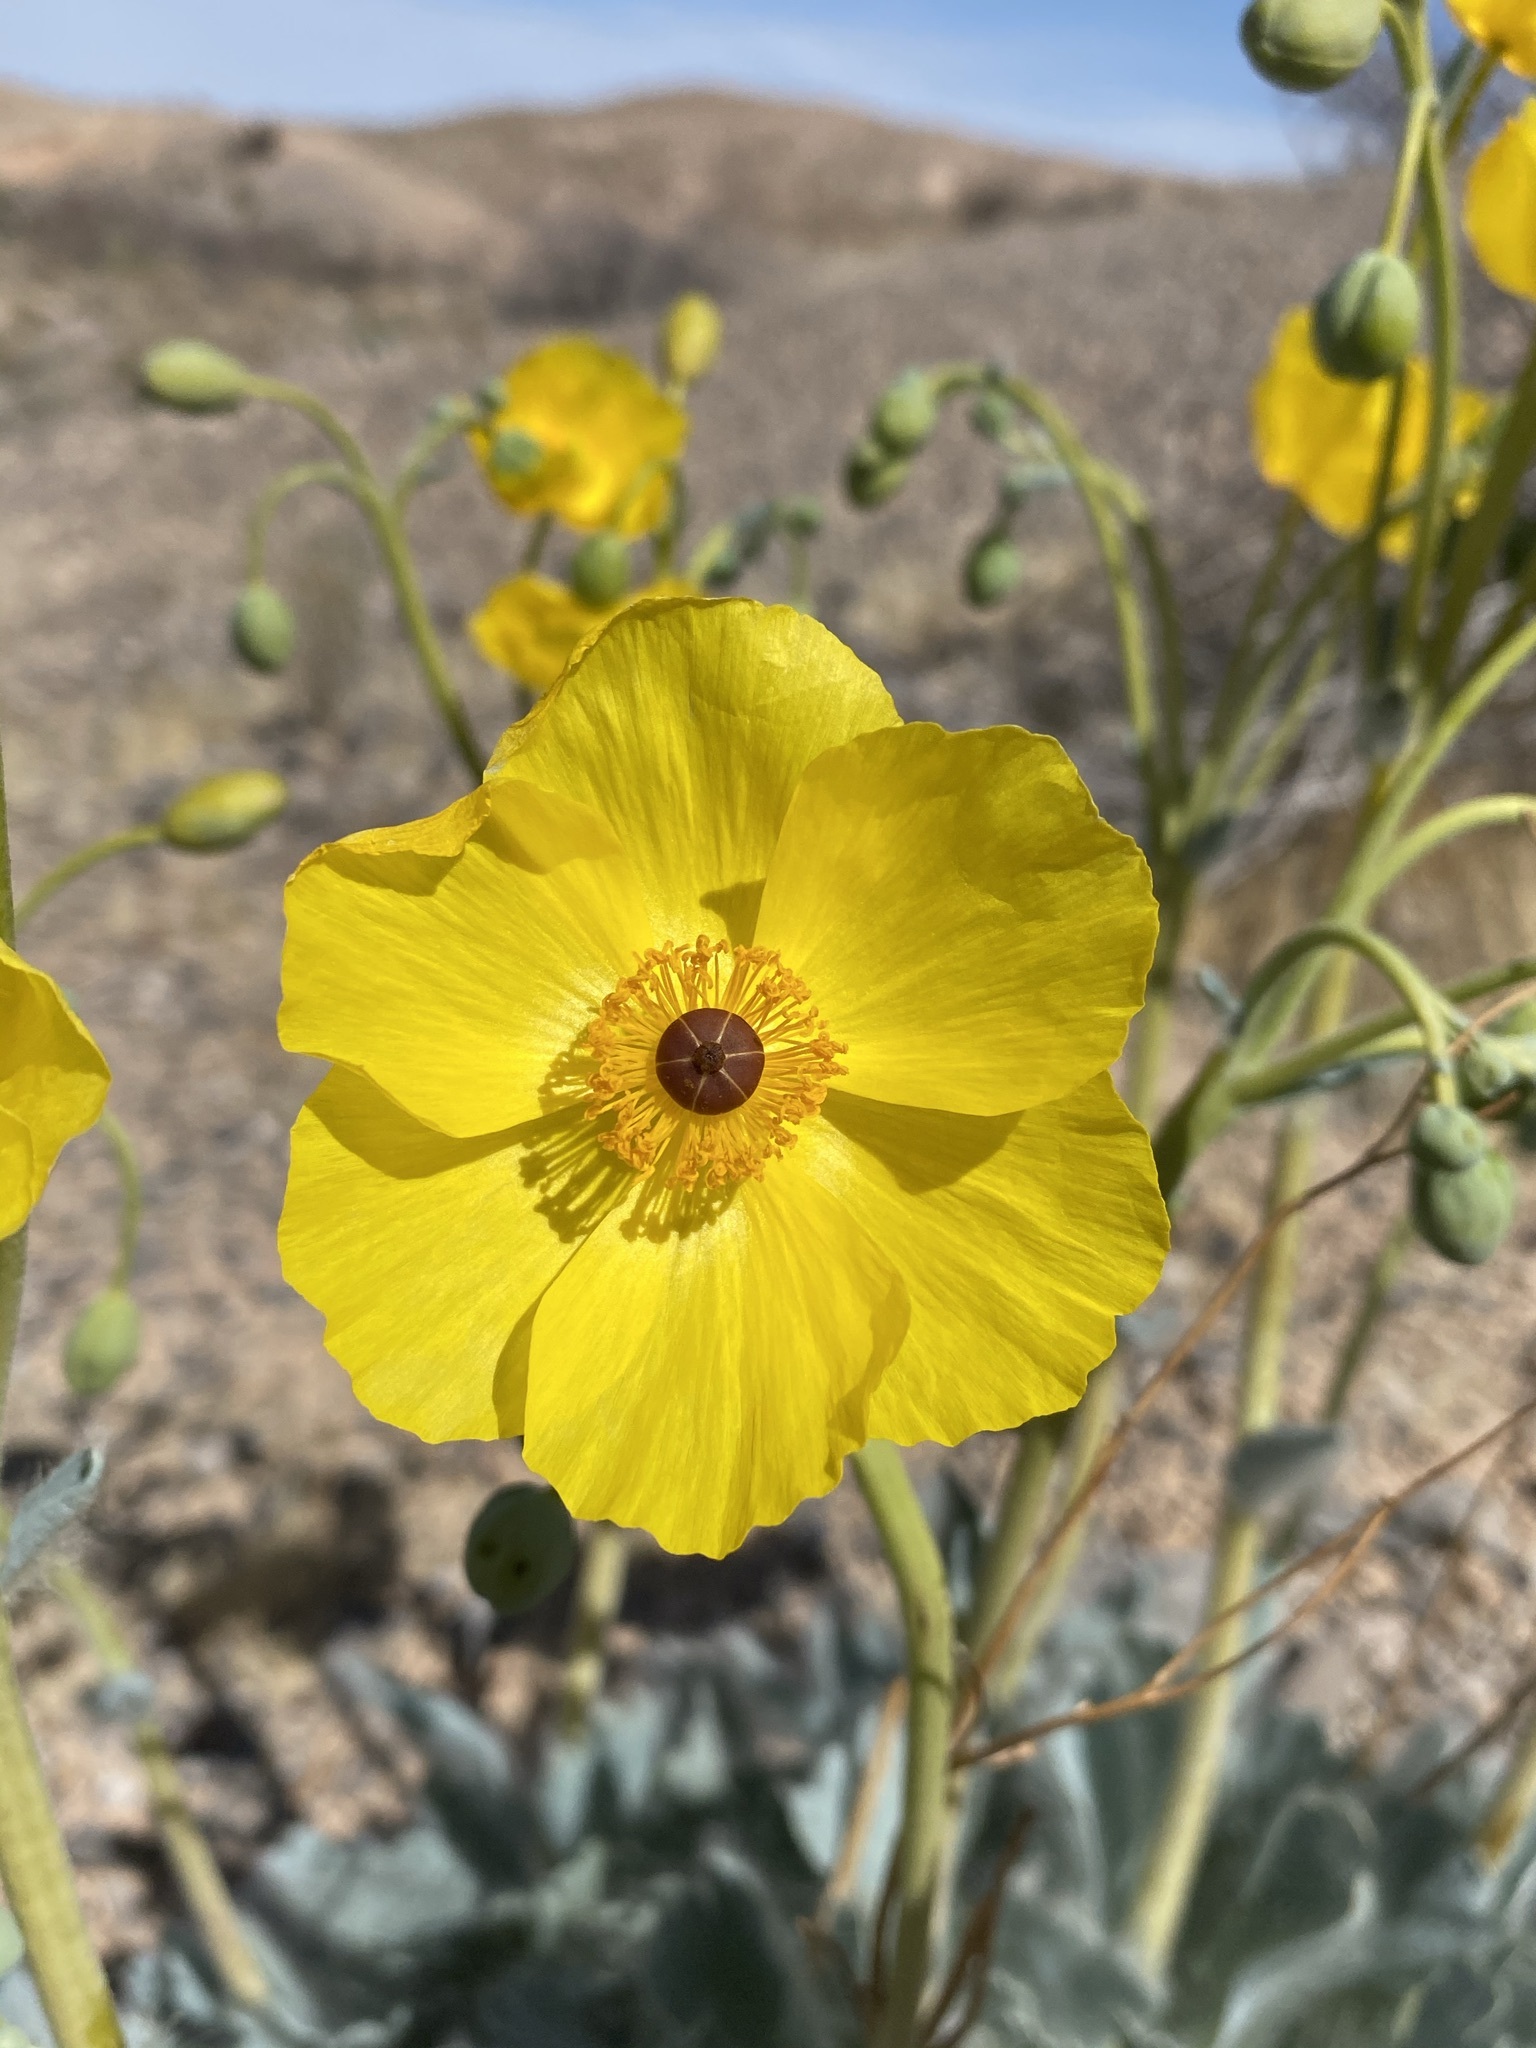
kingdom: Plantae
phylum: Tracheophyta
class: Magnoliopsida
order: Ranunculales
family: Papaveraceae
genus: Arctomecon
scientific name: Arctomecon californicum
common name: Golden bearclaw-poppy
